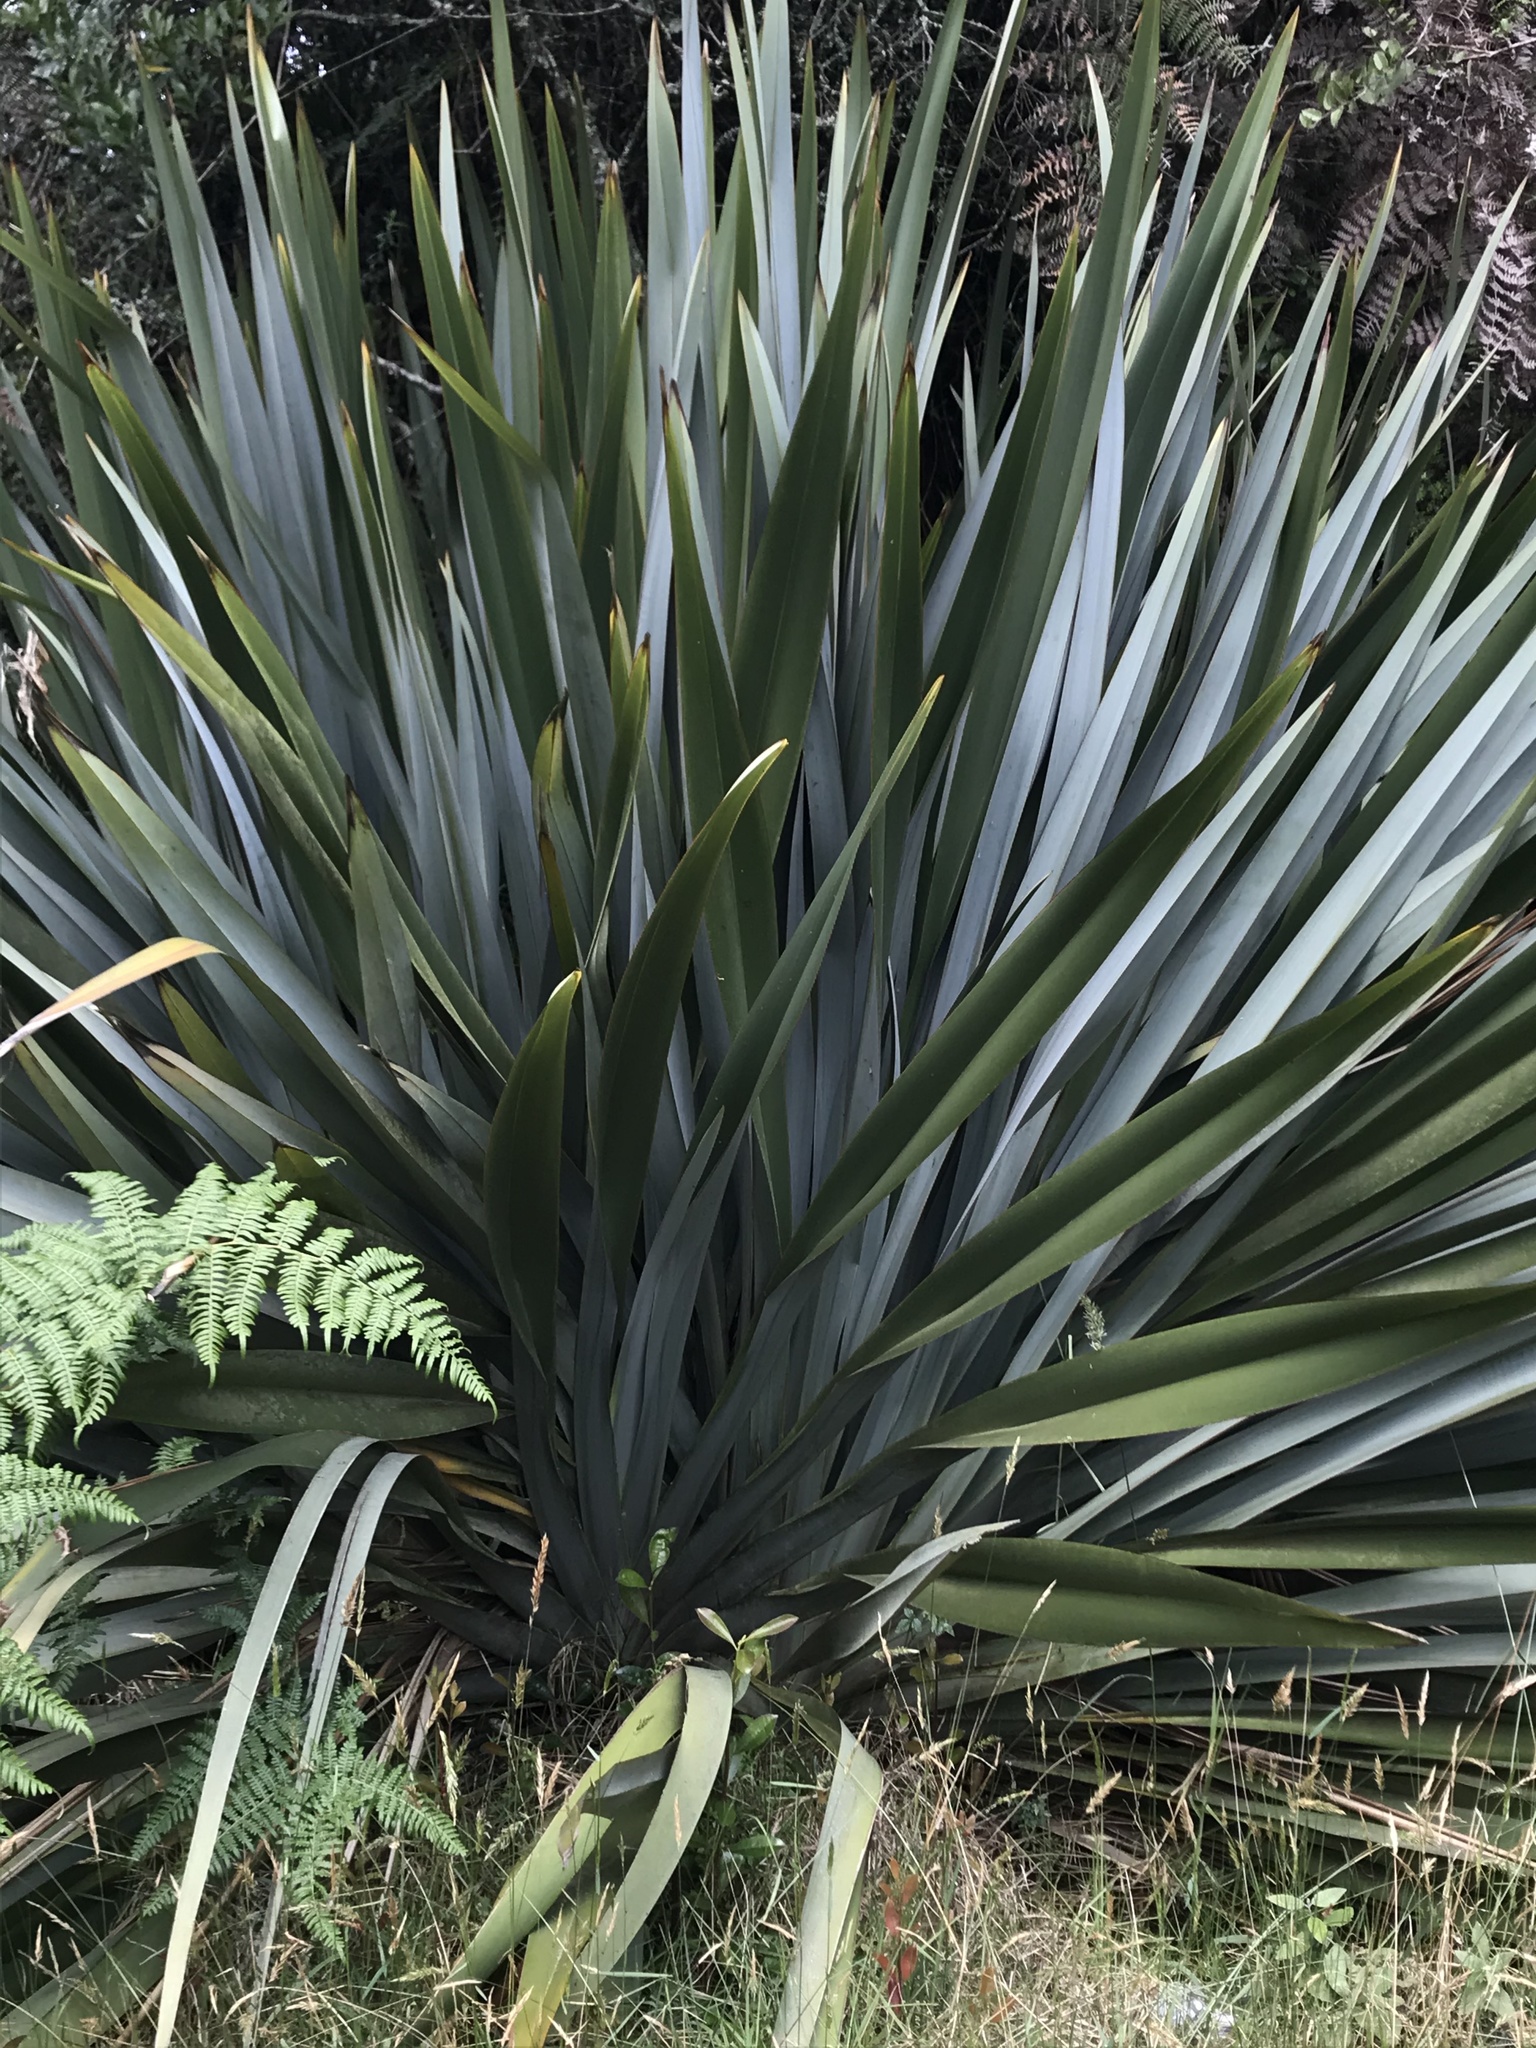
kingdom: Plantae
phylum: Tracheophyta
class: Liliopsida
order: Asparagales
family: Asphodelaceae
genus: Phormium
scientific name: Phormium tenax
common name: New zealand flax
